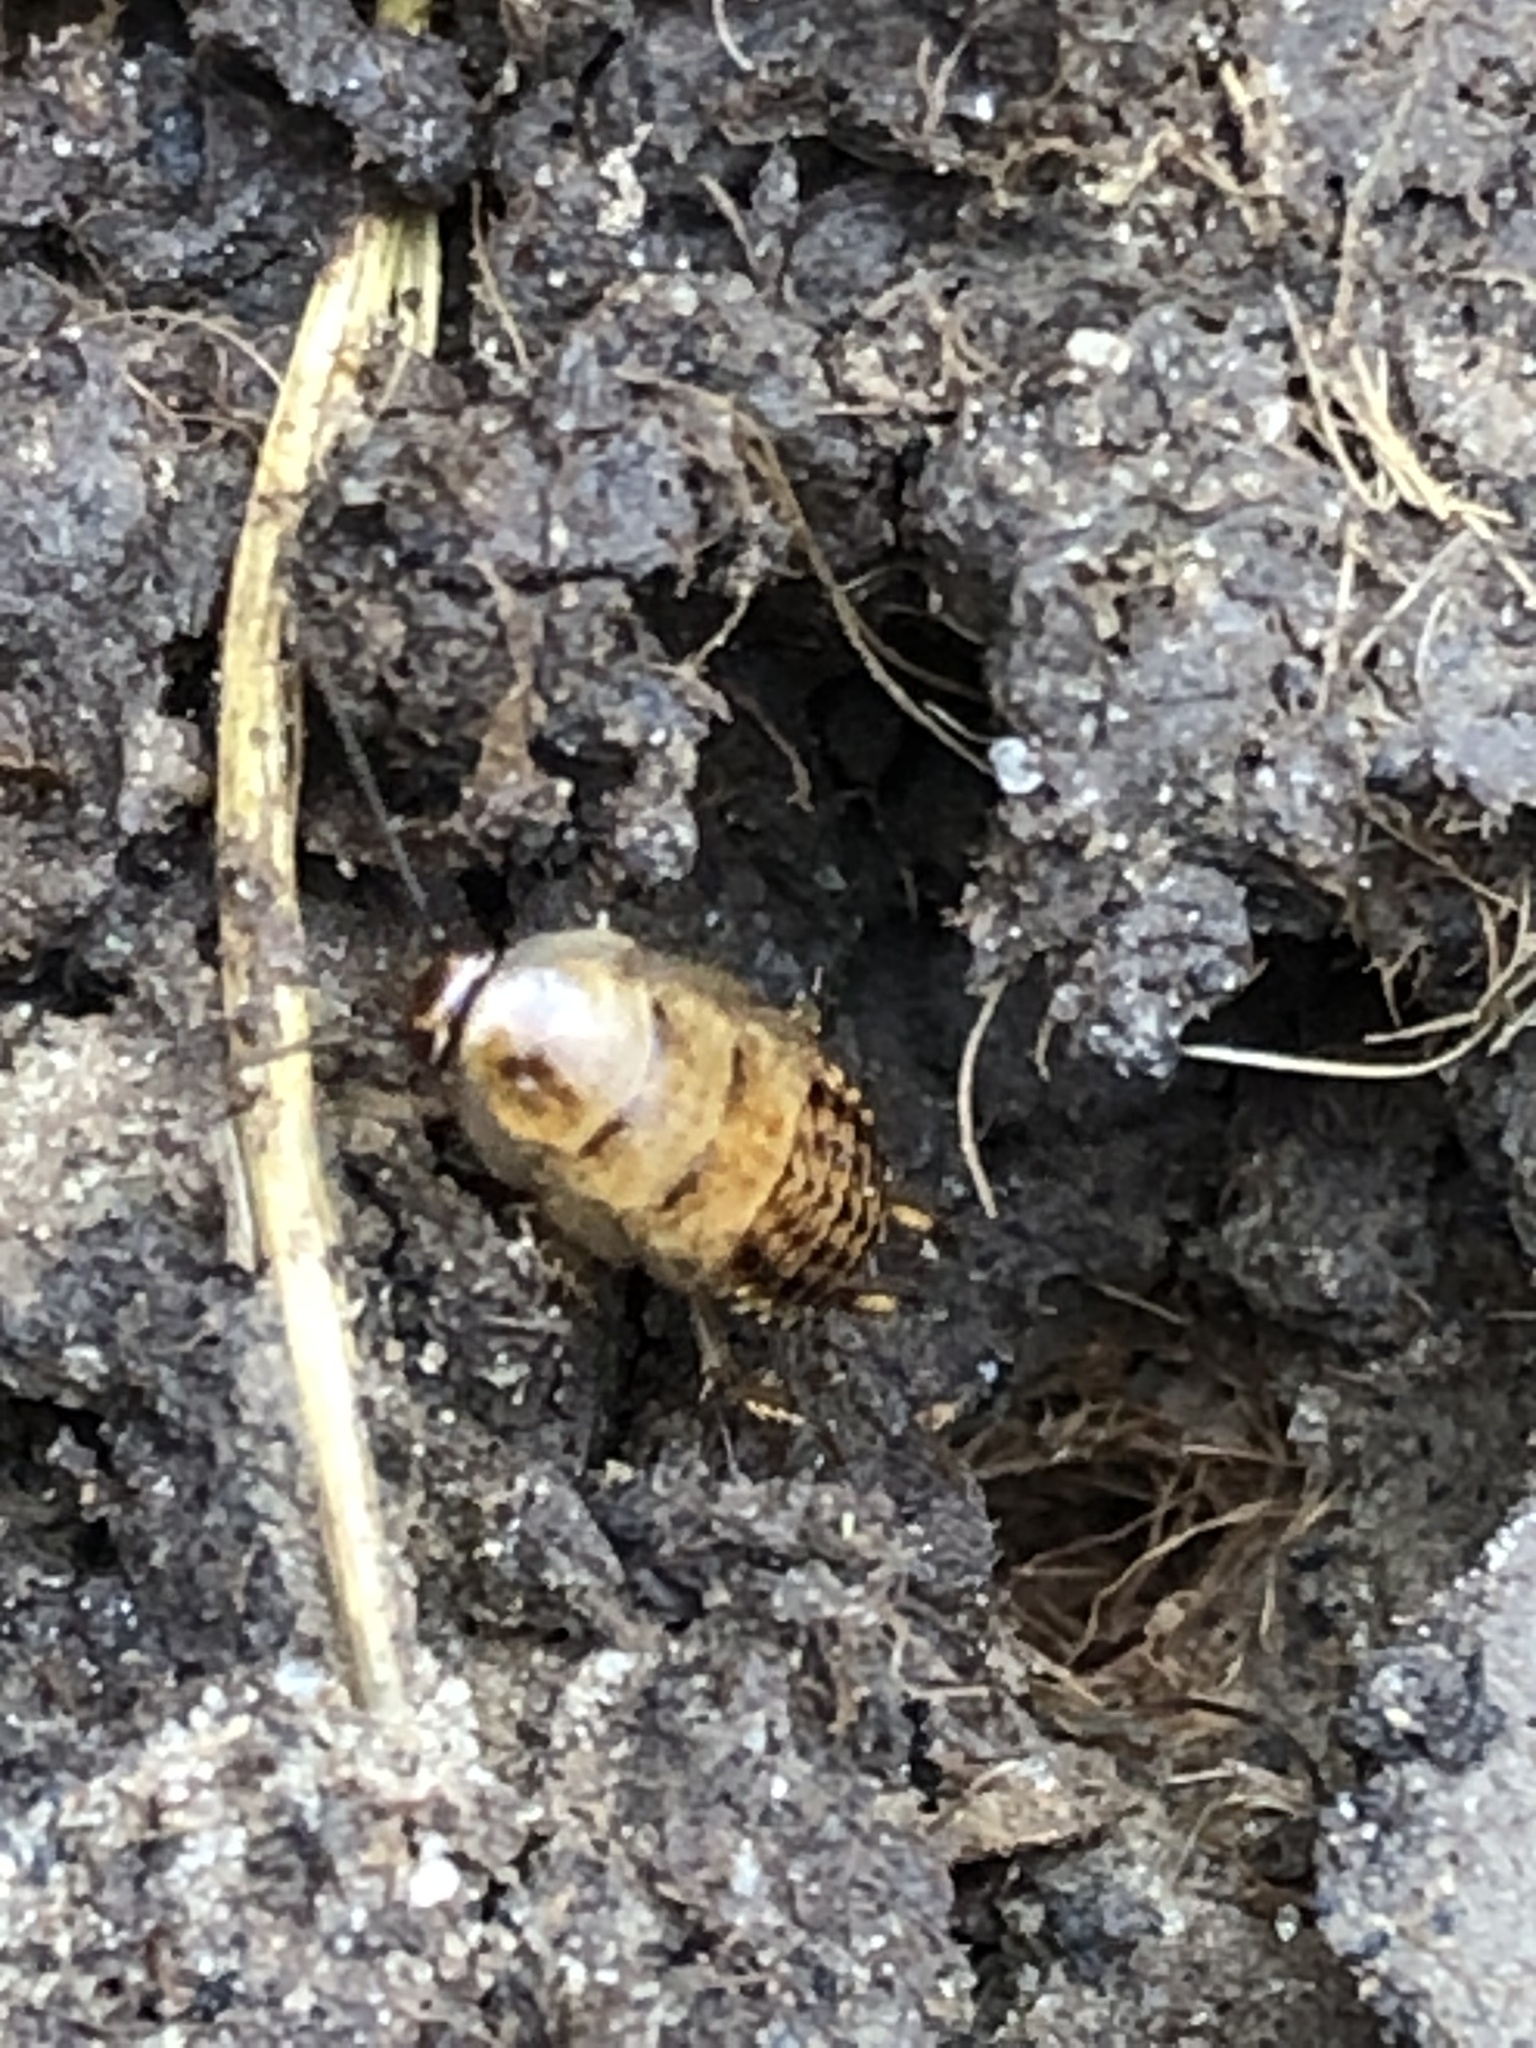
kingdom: Animalia
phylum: Arthropoda
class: Insecta
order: Blattodea
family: Ectobiidae
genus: Ectobius
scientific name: Ectobius lapponicus
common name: Dusky cockroach
